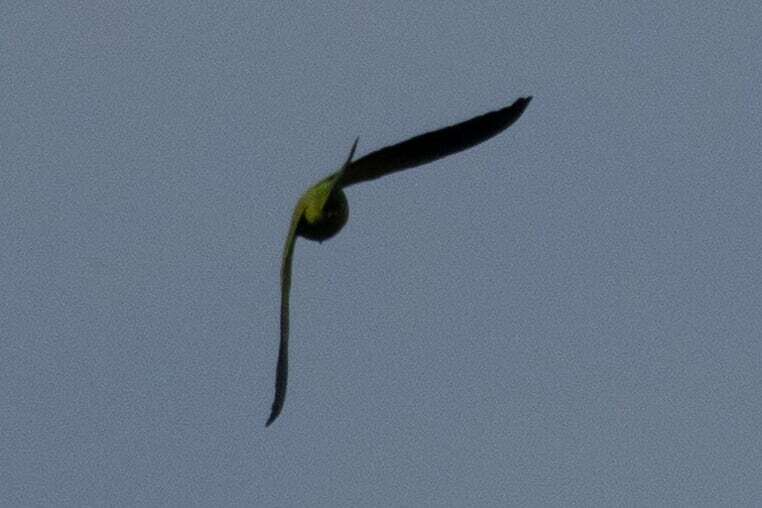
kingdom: Animalia
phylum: Chordata
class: Aves
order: Psittaciformes
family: Psittacidae
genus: Psittacula
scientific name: Psittacula krameri
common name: Rose-ringed parakeet
